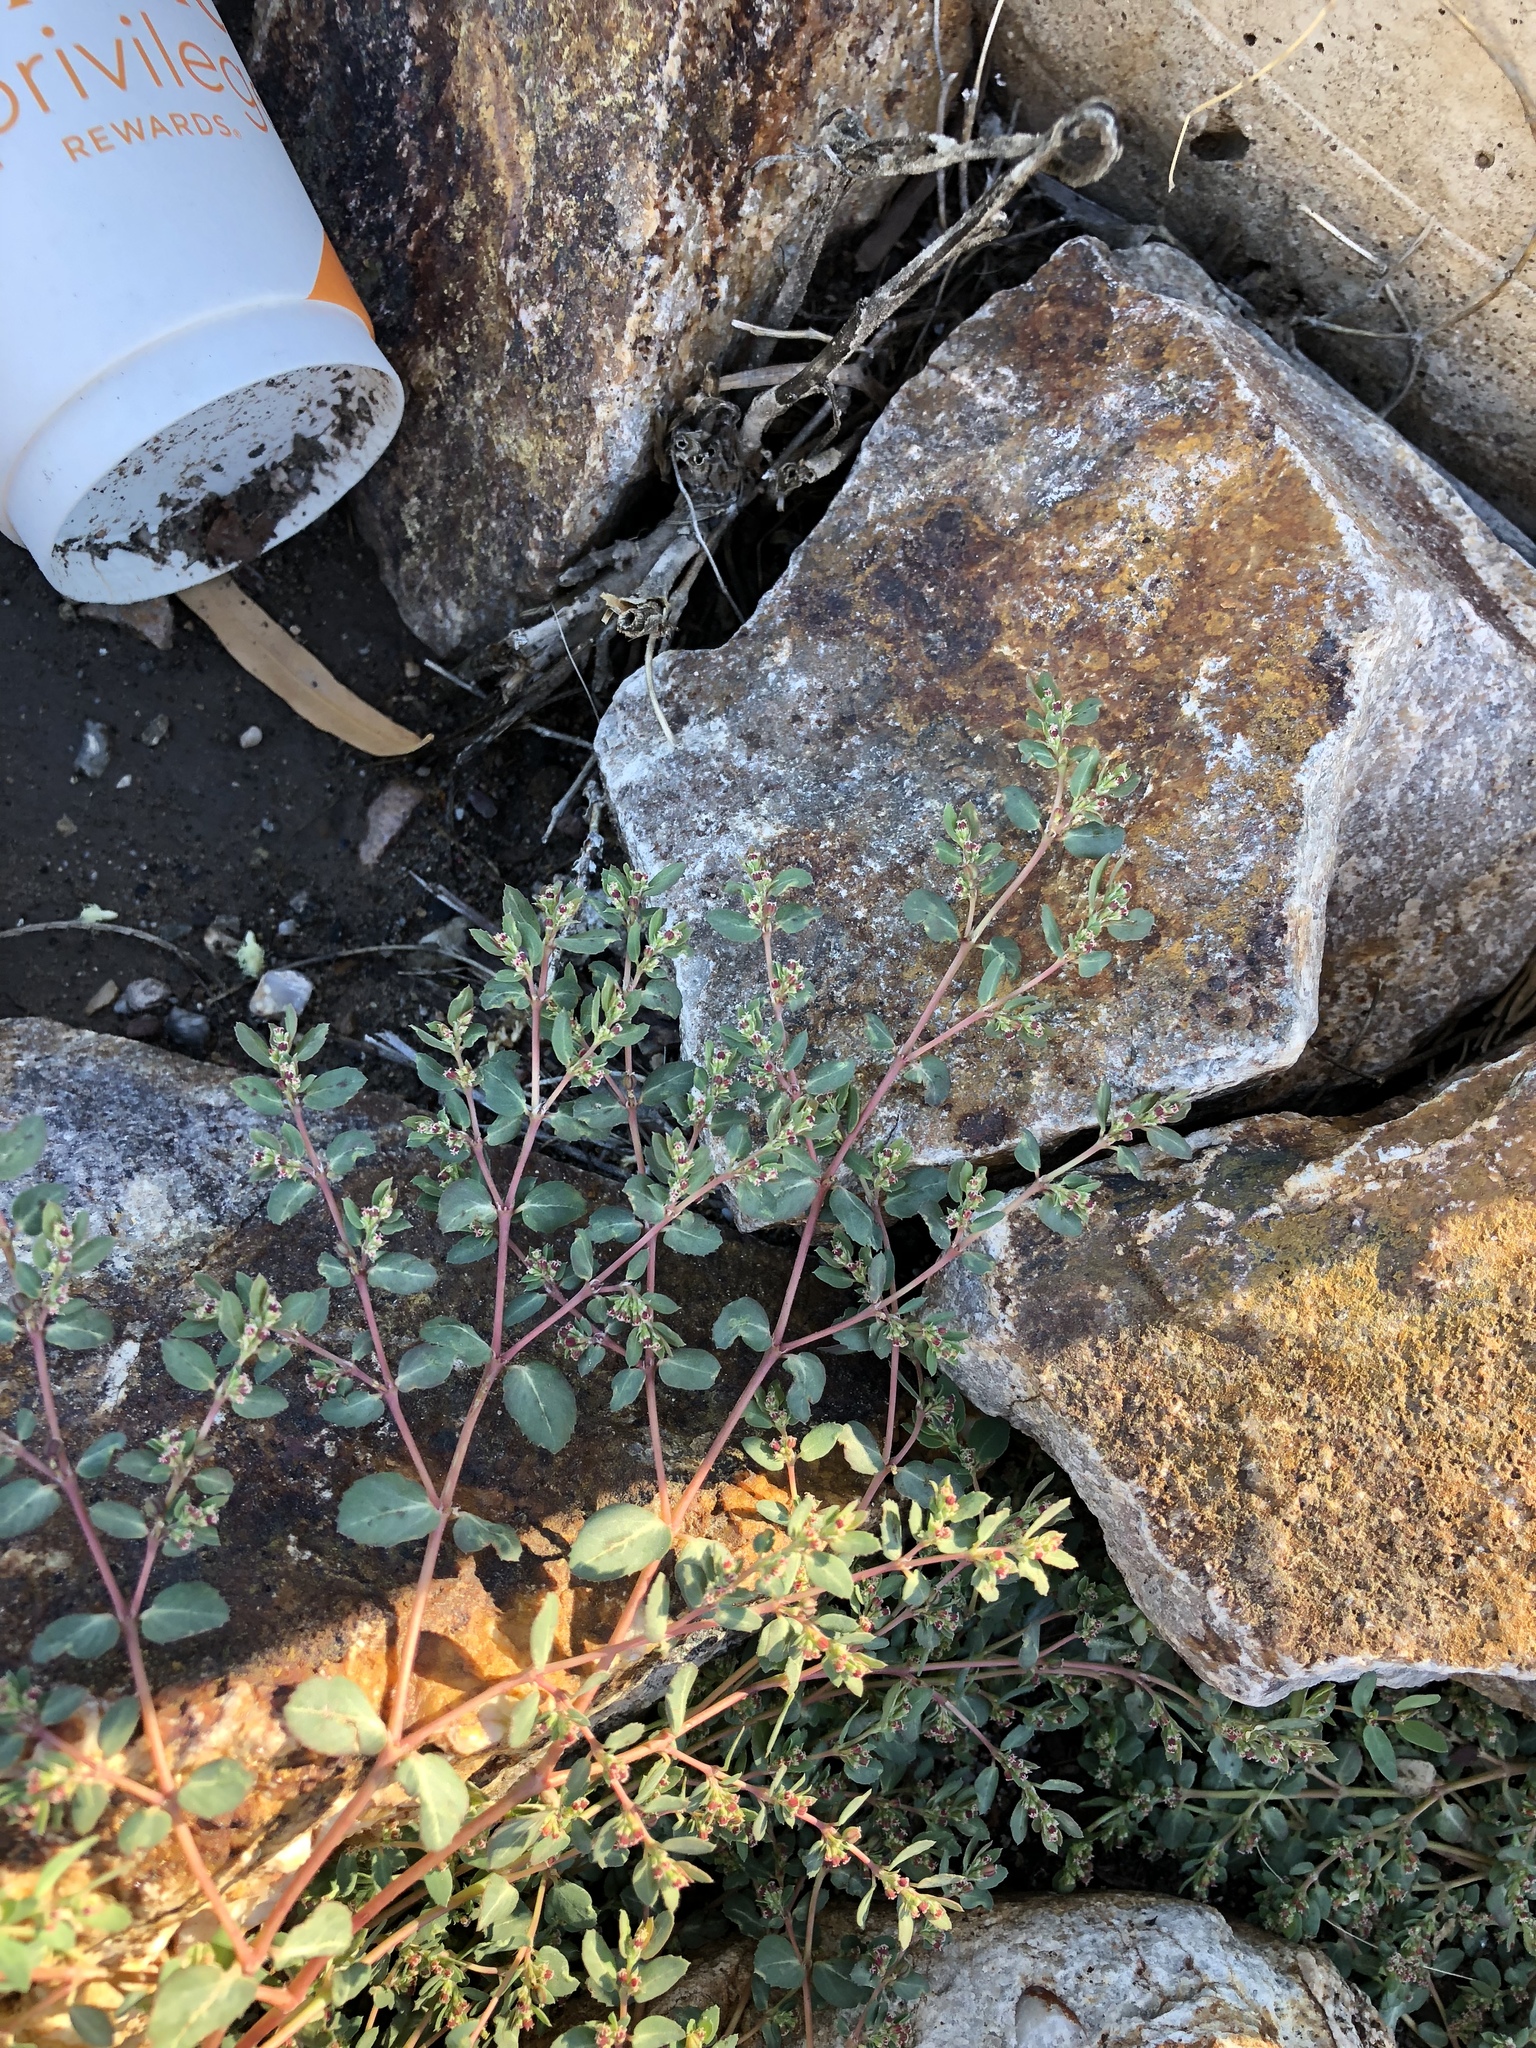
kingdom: Plantae
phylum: Tracheophyta
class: Magnoliopsida
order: Malpighiales
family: Euphorbiaceae
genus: Euphorbia
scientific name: Euphorbia abramsiana
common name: Abram's spurge
